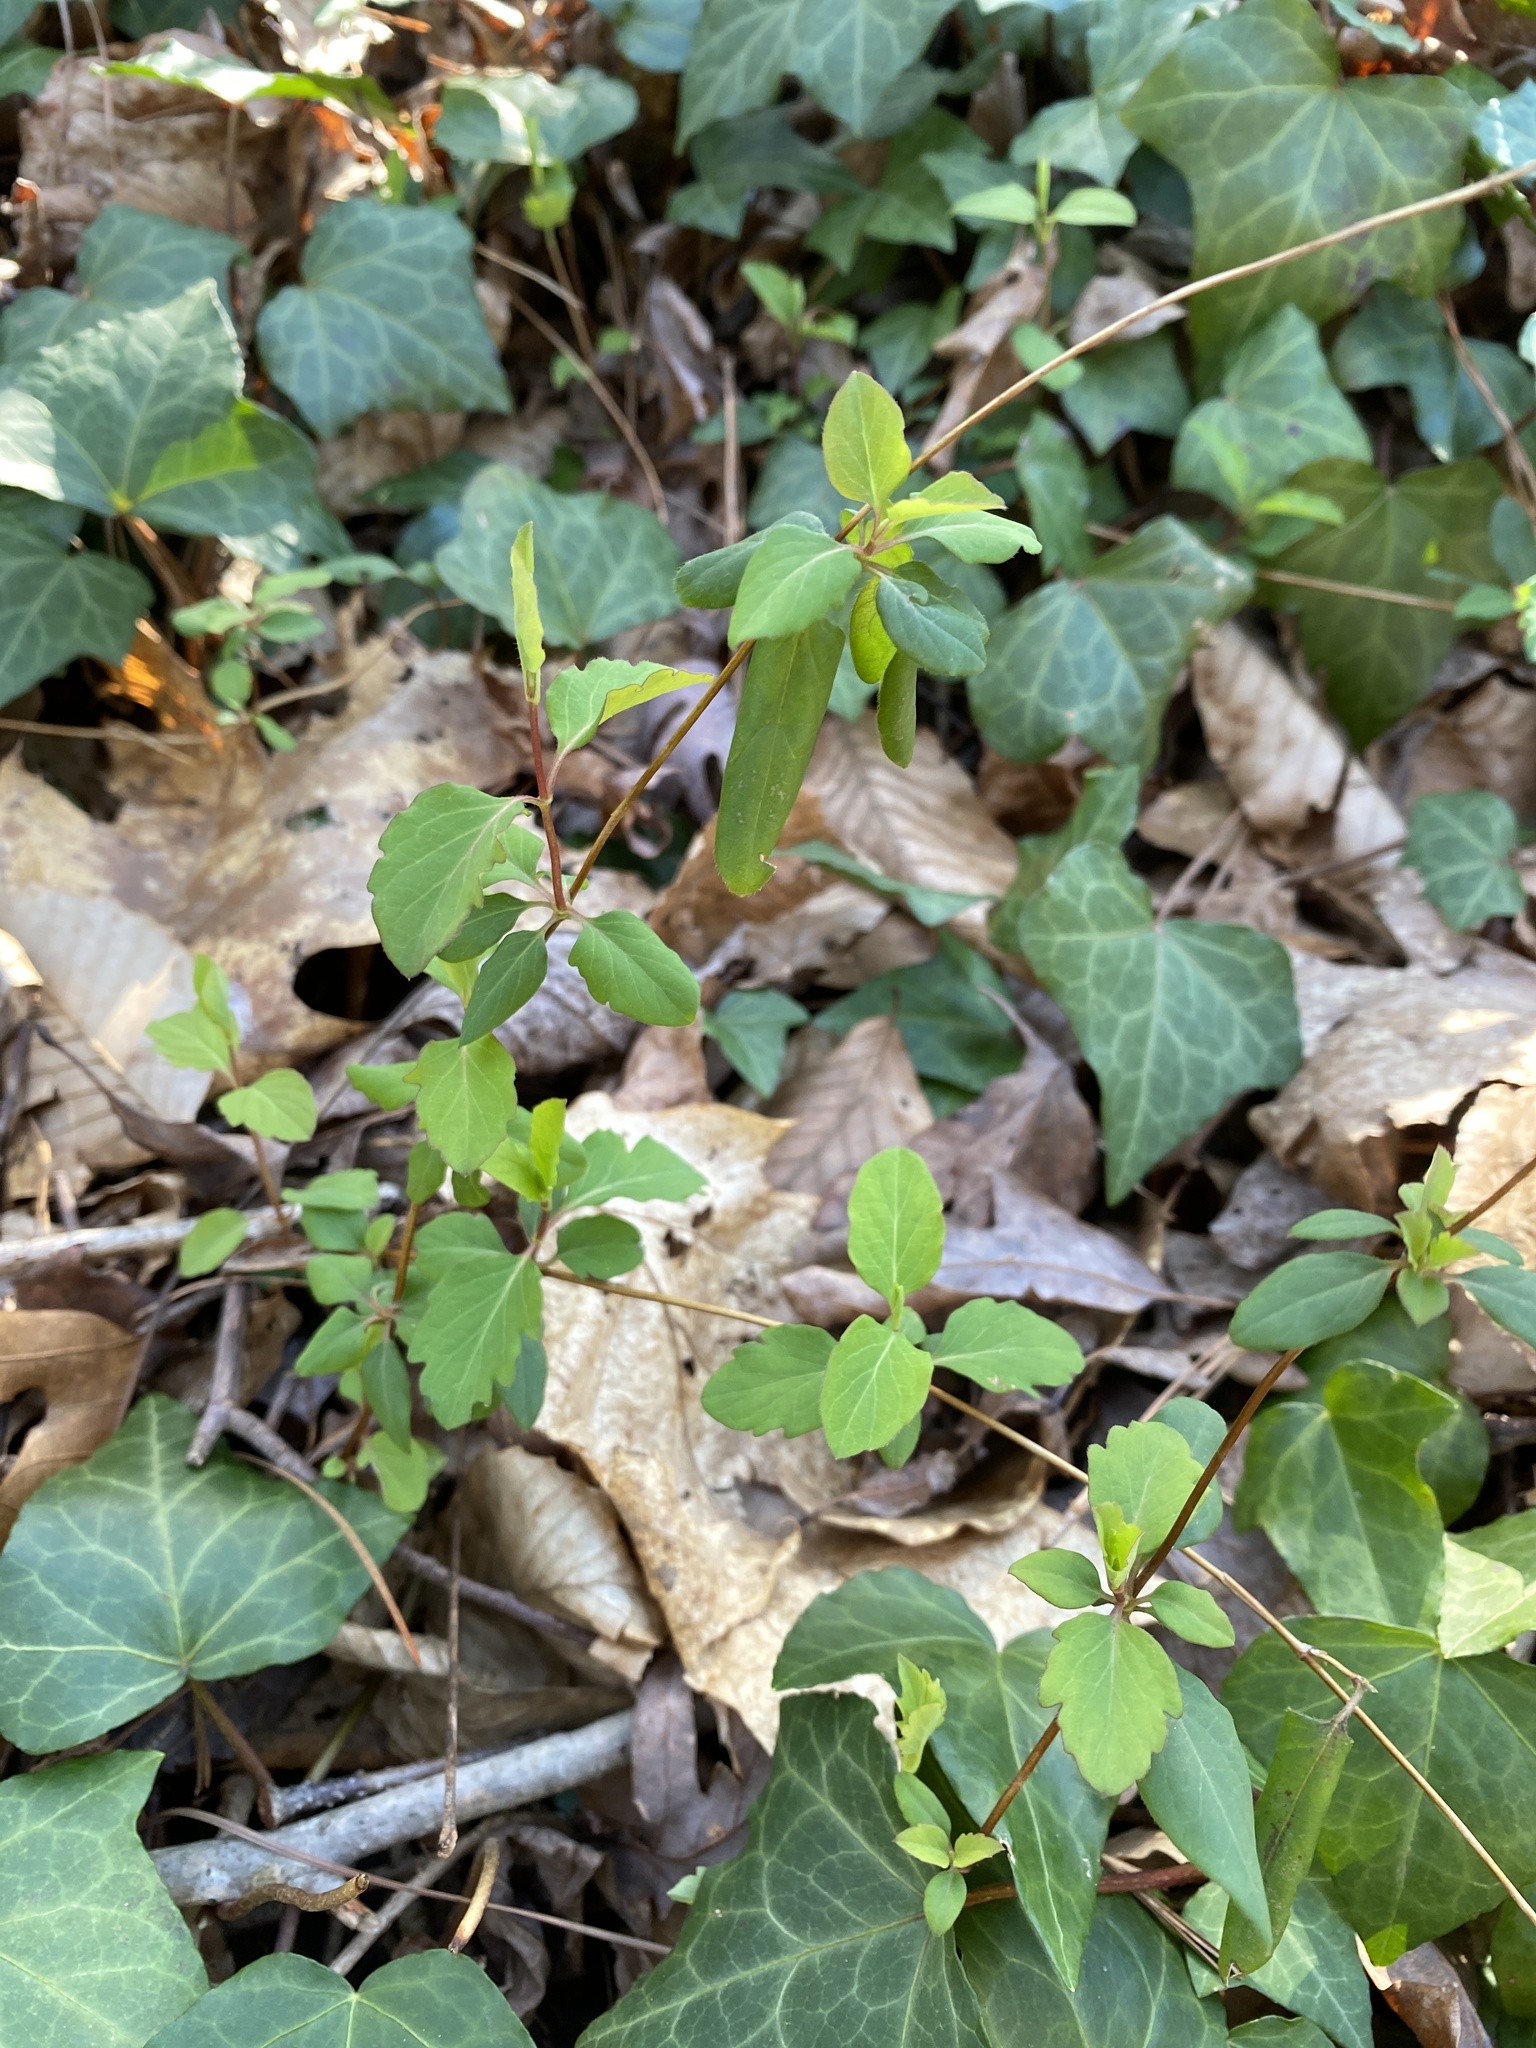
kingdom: Plantae
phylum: Tracheophyta
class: Magnoliopsida
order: Dipsacales
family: Caprifoliaceae
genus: Lonicera
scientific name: Lonicera japonica
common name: Japanese honeysuckle
